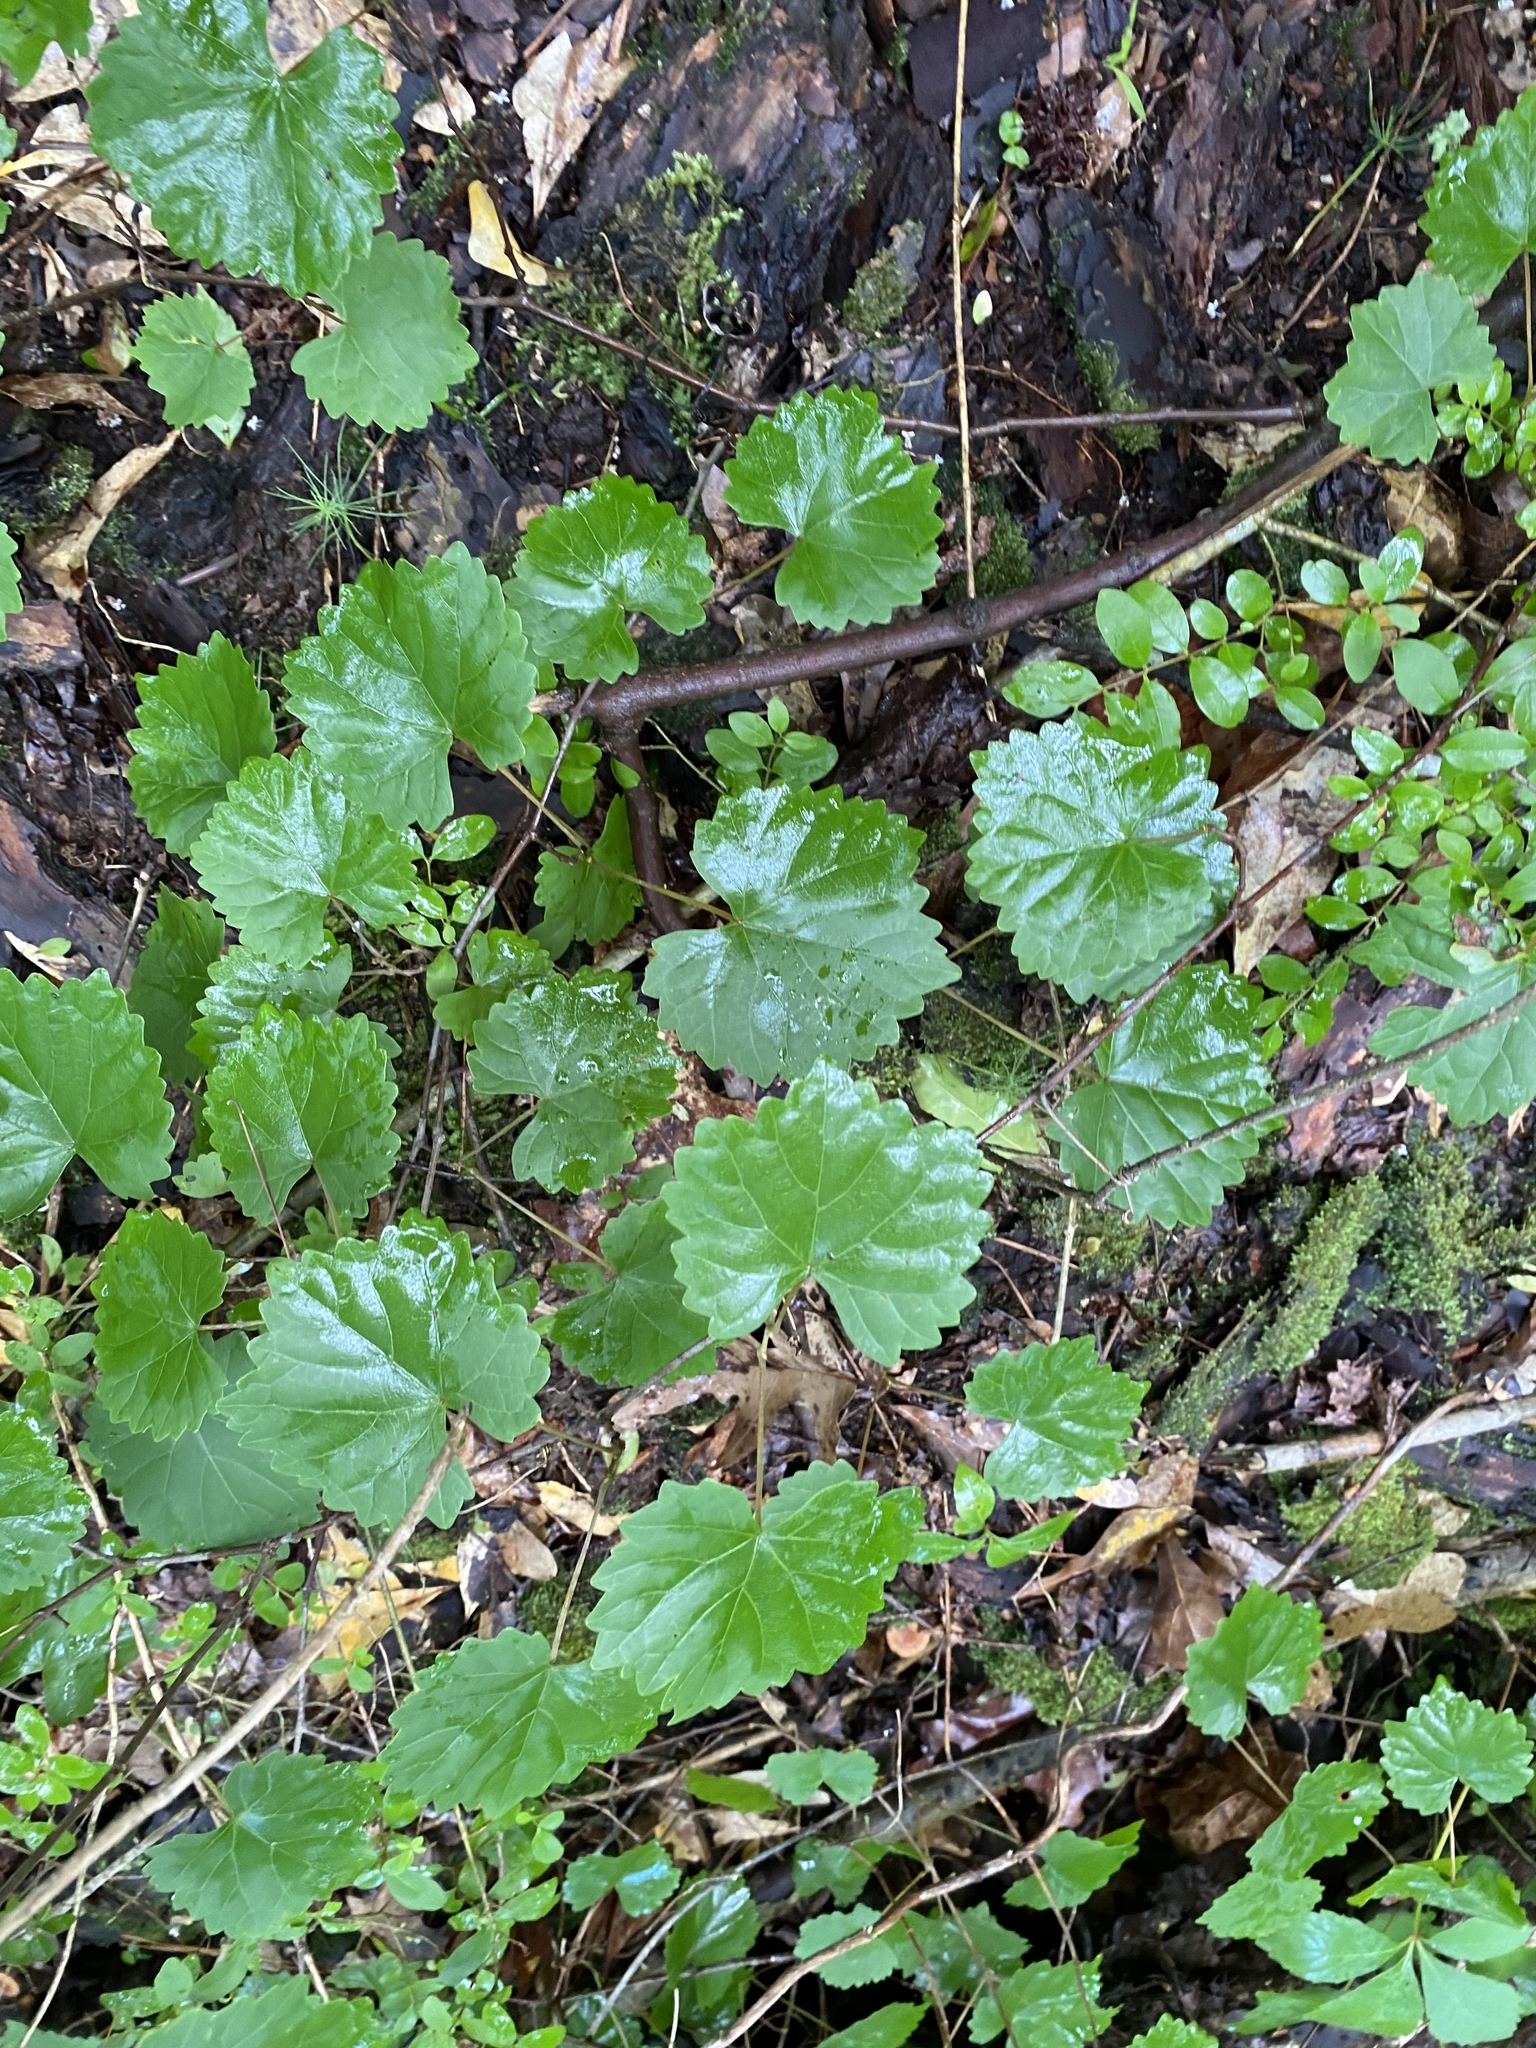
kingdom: Plantae
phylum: Tracheophyta
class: Magnoliopsida
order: Vitales
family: Vitaceae
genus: Vitis
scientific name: Vitis rotundifolia
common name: Muscadine grape
